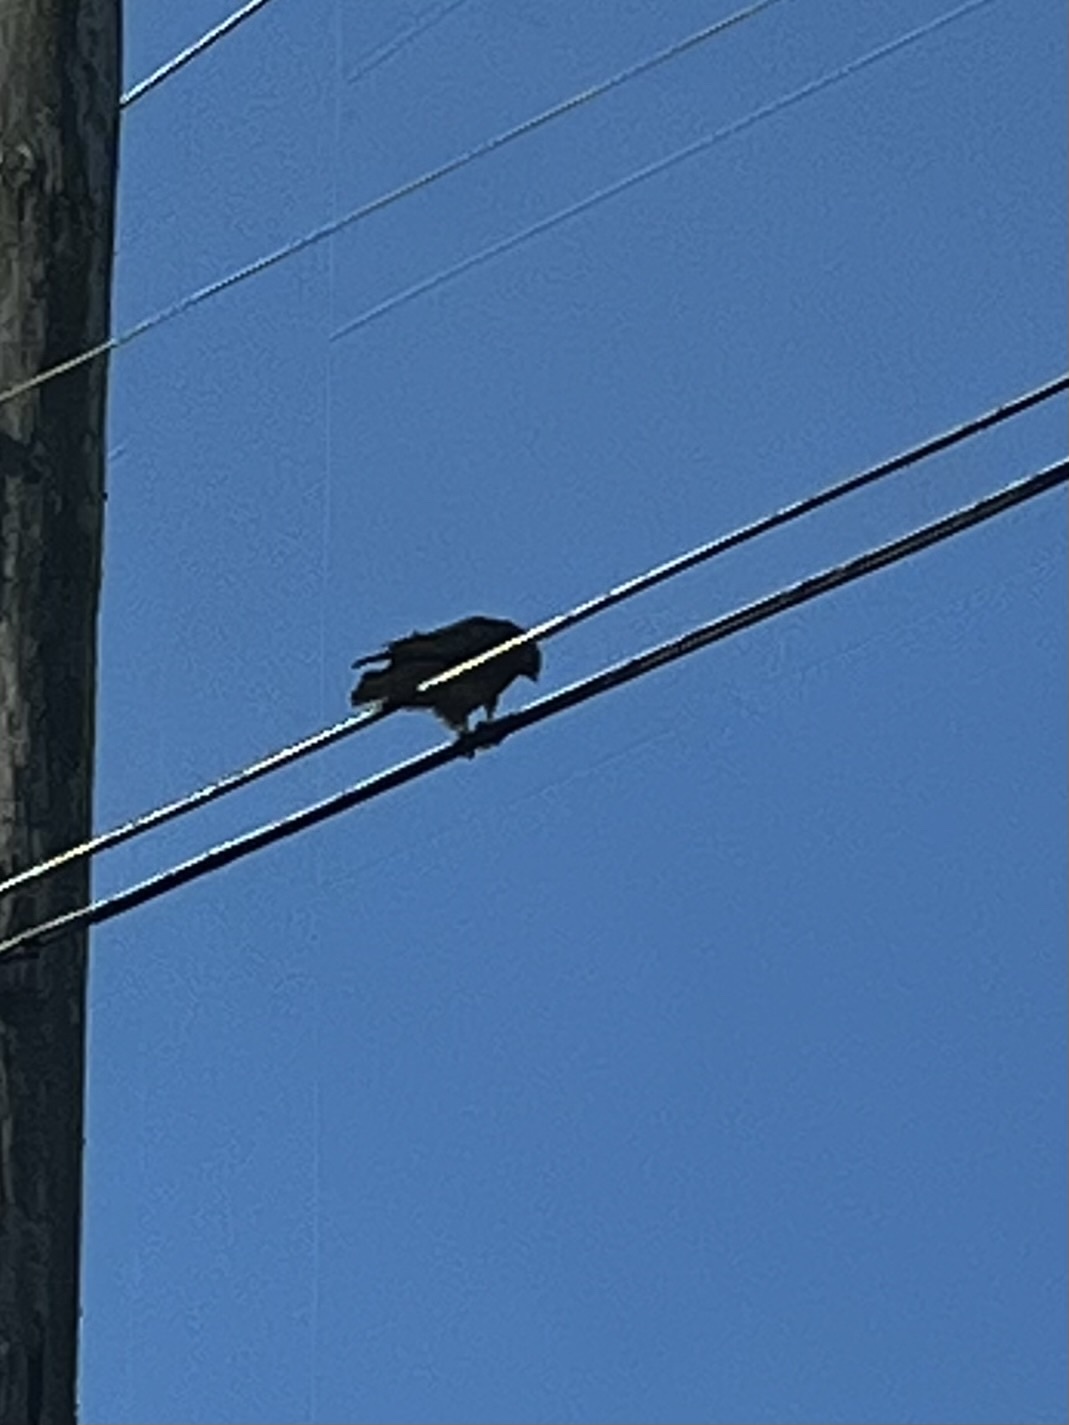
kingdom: Animalia
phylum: Chordata
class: Aves
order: Accipitriformes
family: Accipitridae
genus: Buteo
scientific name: Buteo jamaicensis
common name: Red-tailed hawk
